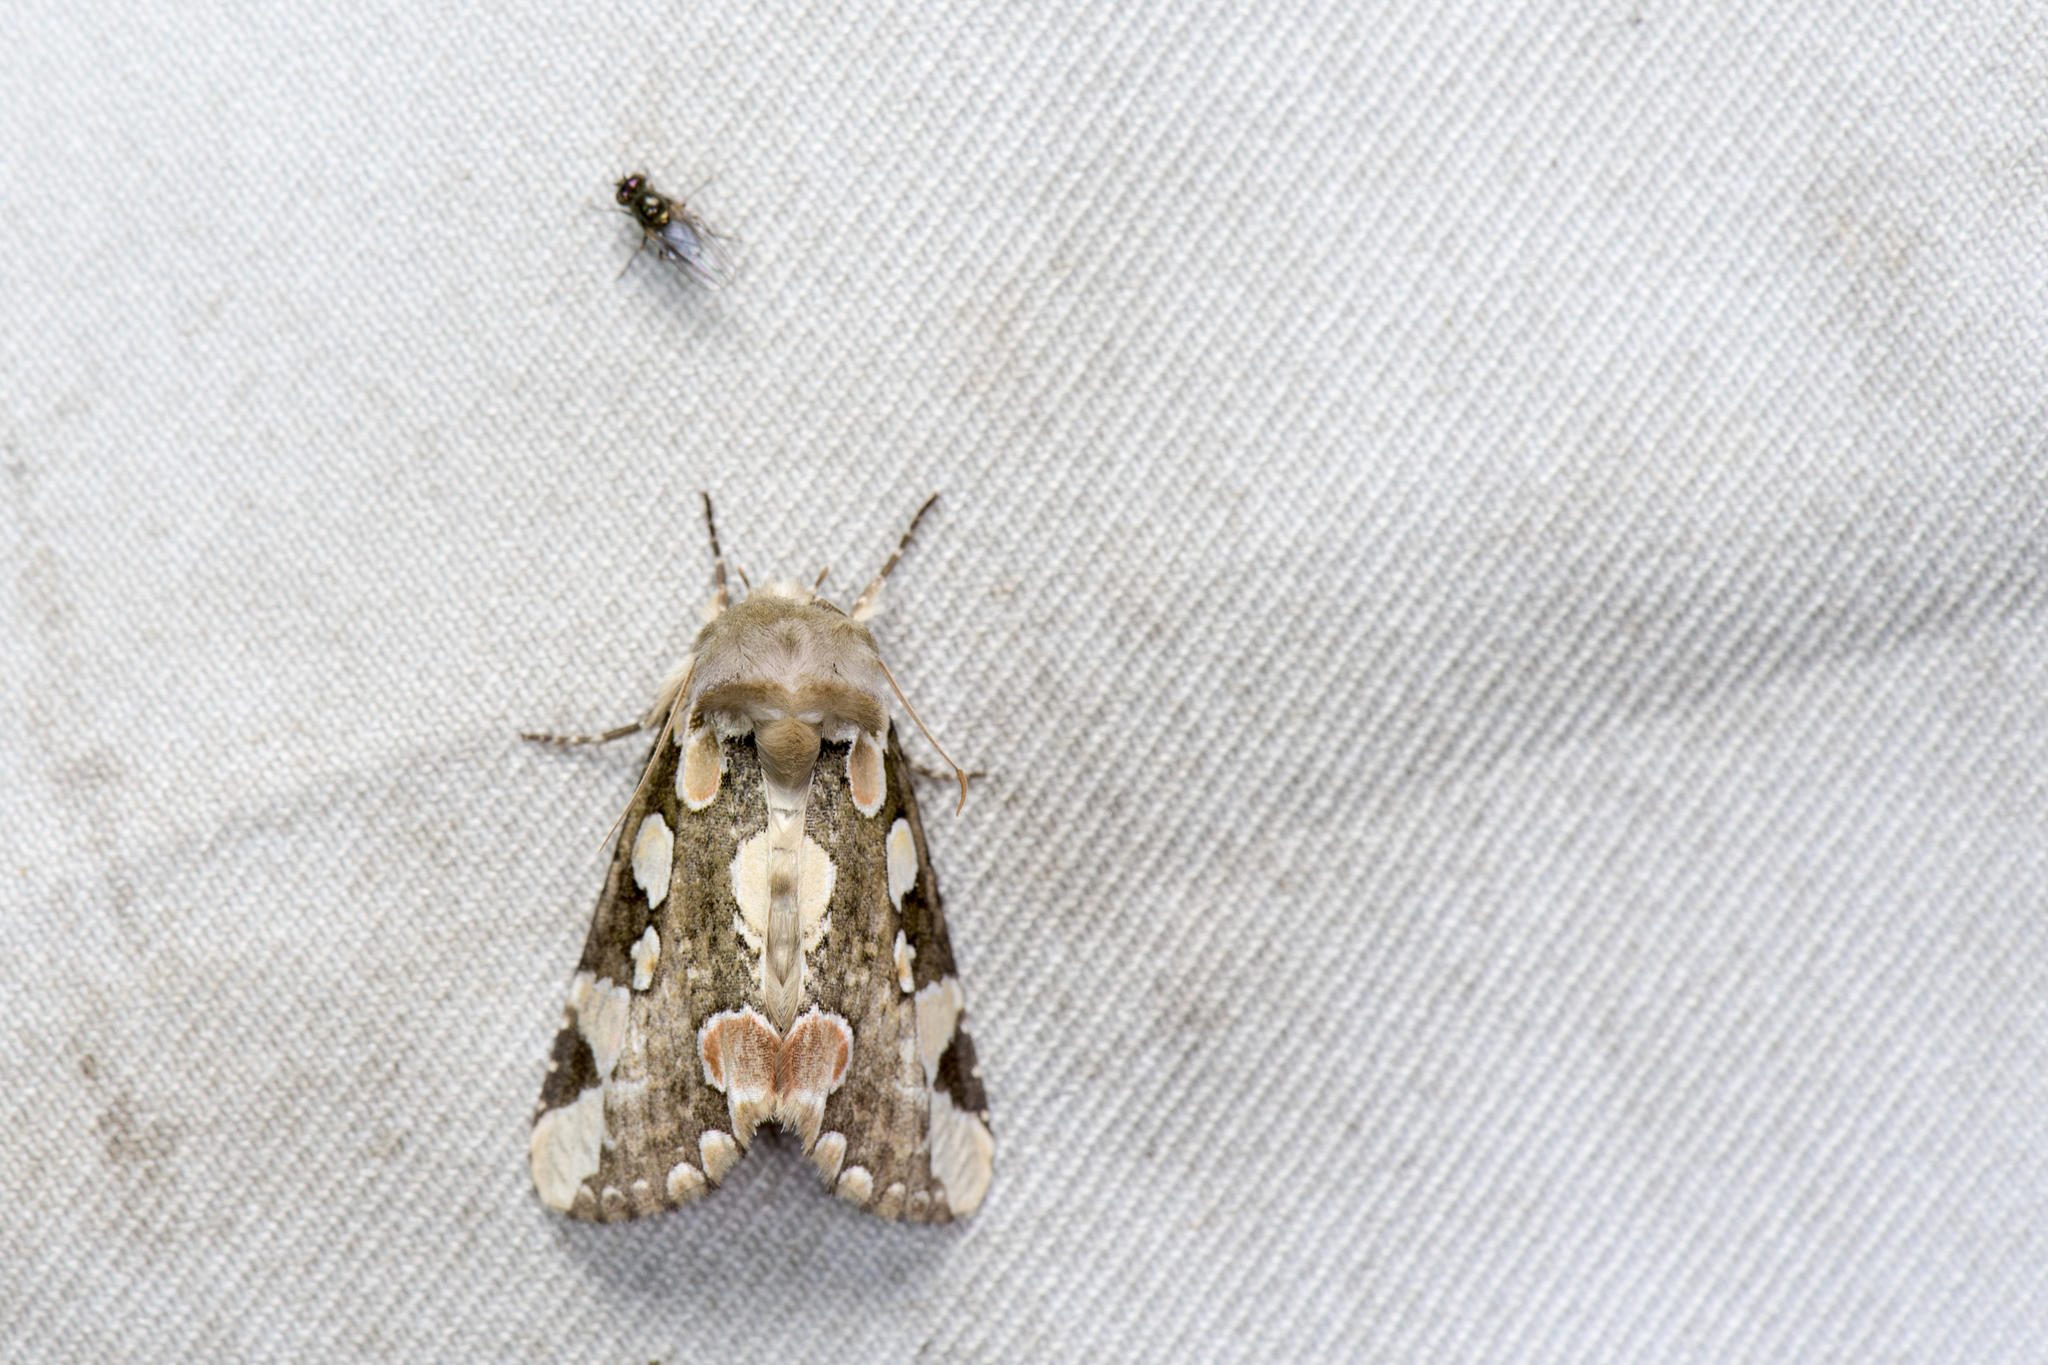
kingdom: Animalia
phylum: Arthropoda
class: Insecta
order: Lepidoptera
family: Drepanidae
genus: Horithyatira
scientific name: Horithyatira takamukui
